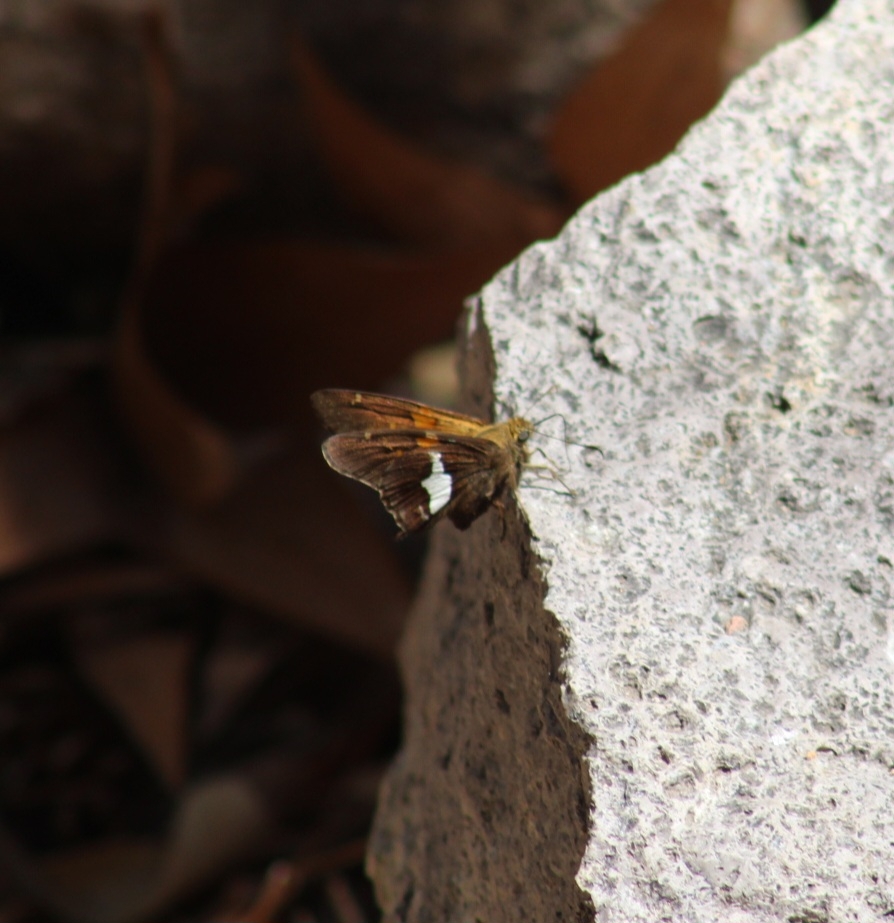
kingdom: Animalia
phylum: Arthropoda
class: Insecta
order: Lepidoptera
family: Hesperiidae
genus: Epargyreus
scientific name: Epargyreus clarus
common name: Silver-spotted skipper
